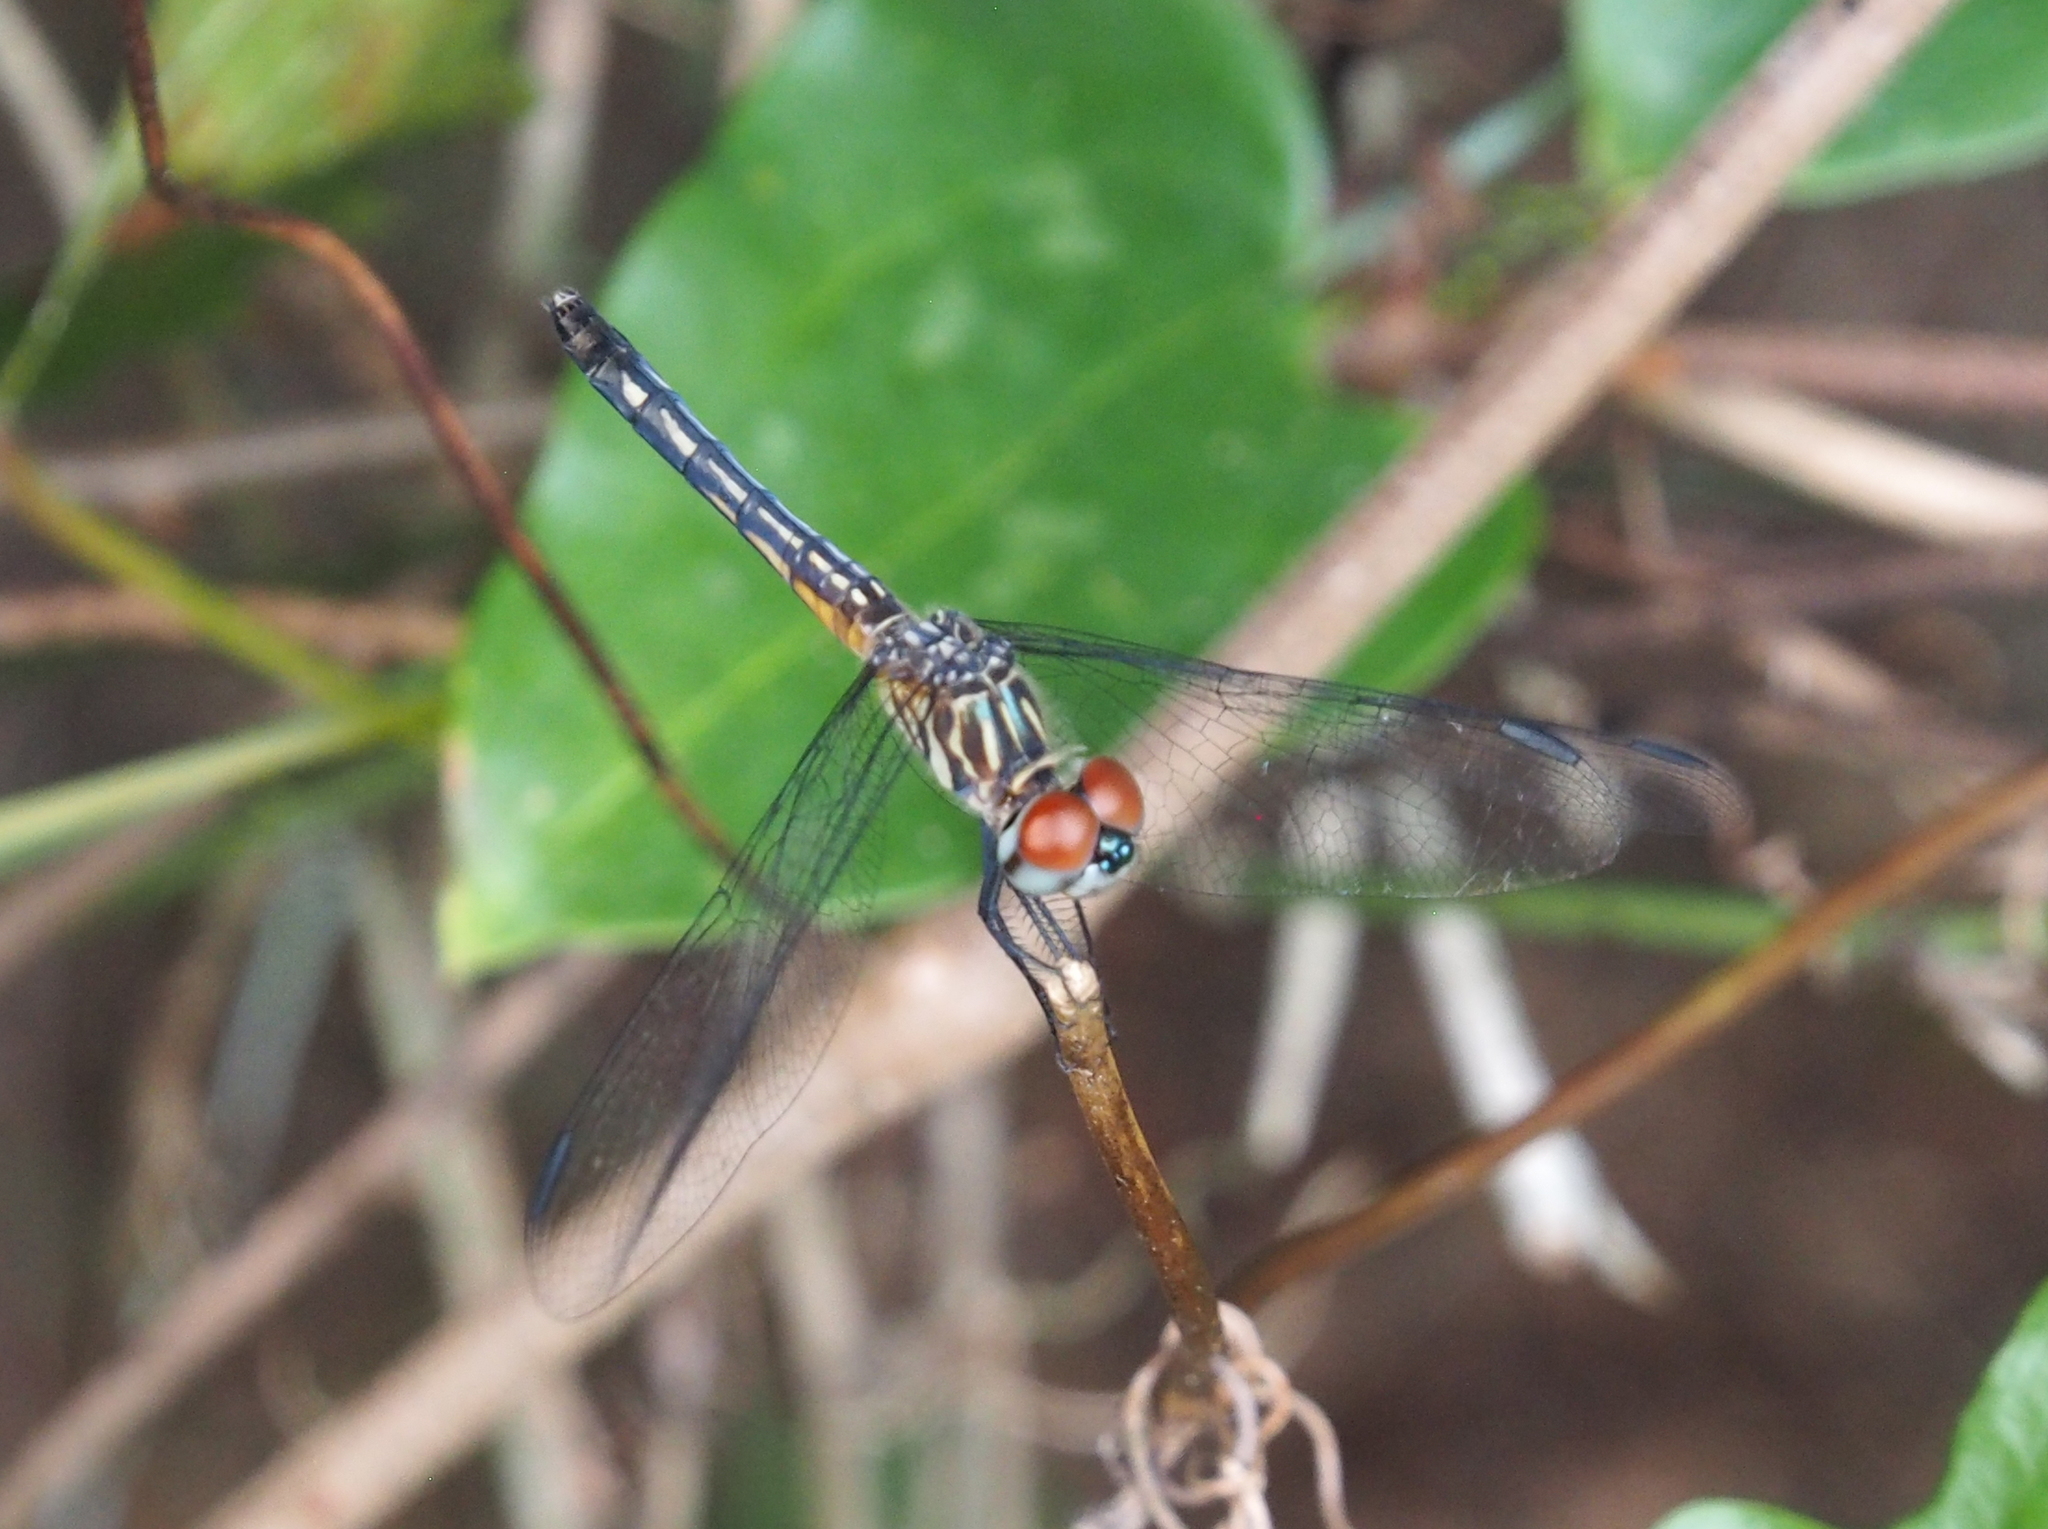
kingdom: Animalia
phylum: Arthropoda
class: Insecta
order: Odonata
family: Libellulidae
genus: Pachydiplax
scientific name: Pachydiplax longipennis
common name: Blue dasher
